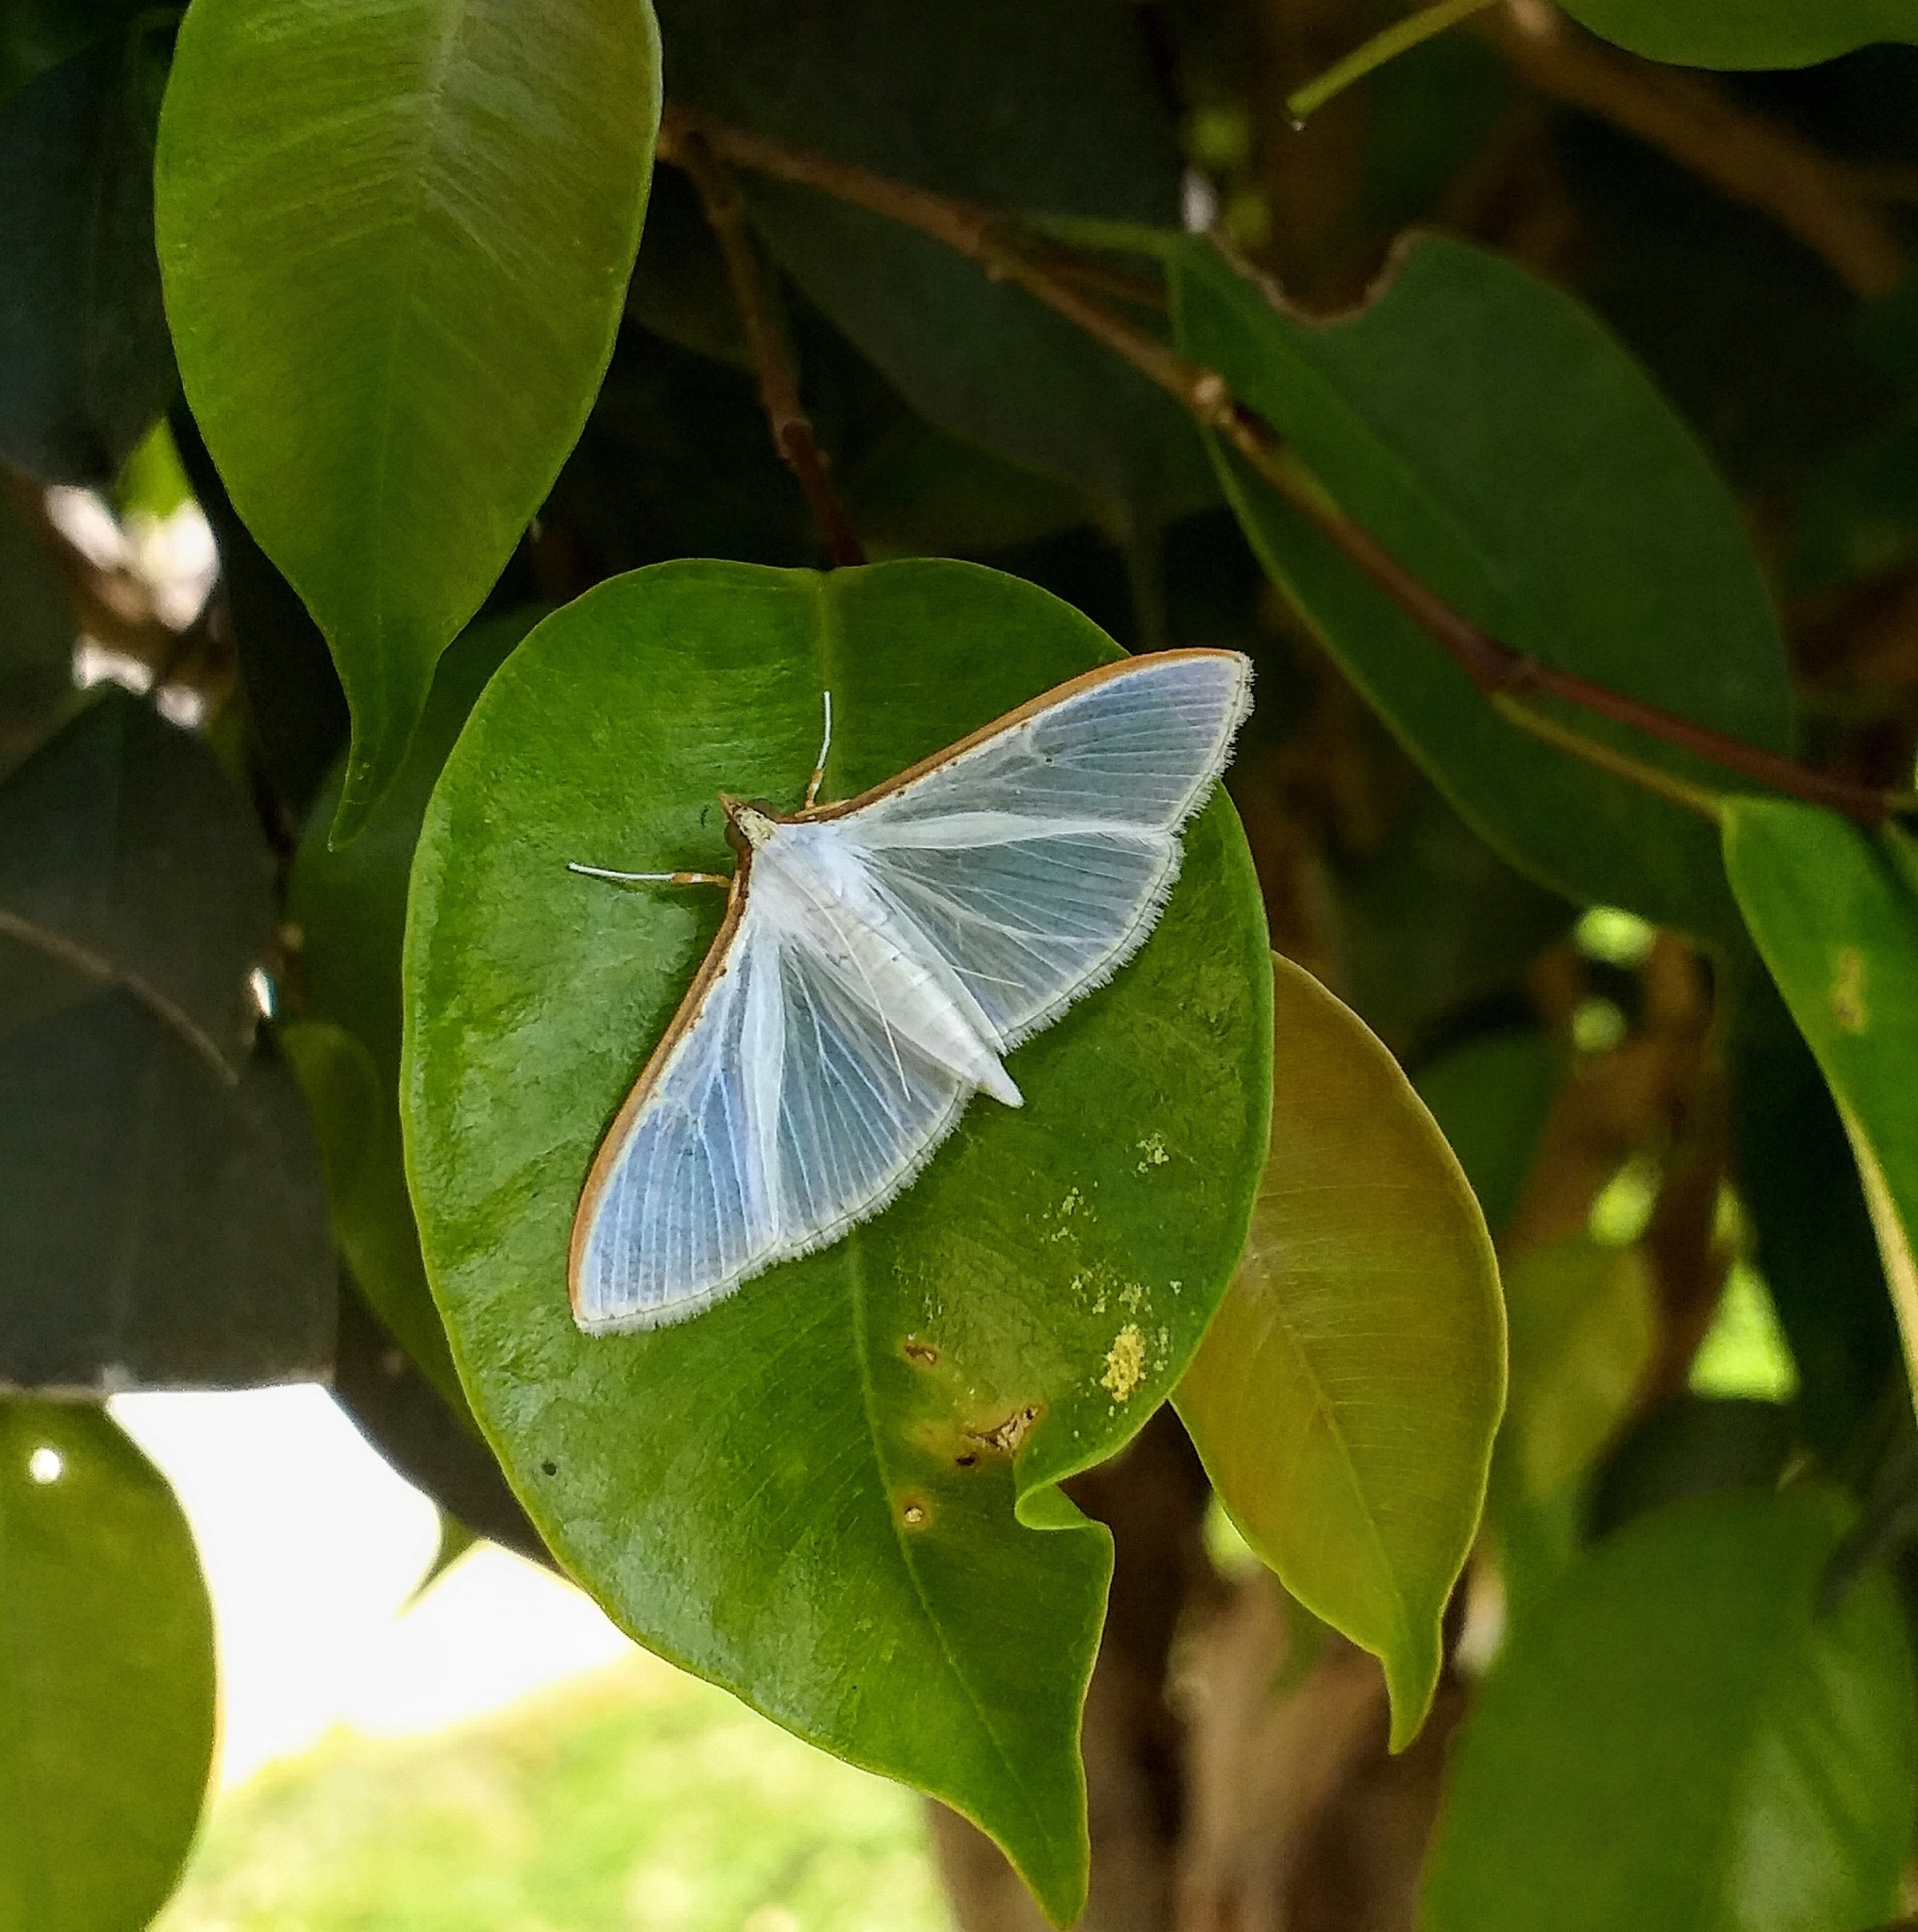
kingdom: Animalia
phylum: Arthropoda
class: Insecta
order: Lepidoptera
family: Crambidae
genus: Palpita
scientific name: Palpita vitrealis
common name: Olive-tree pearl
